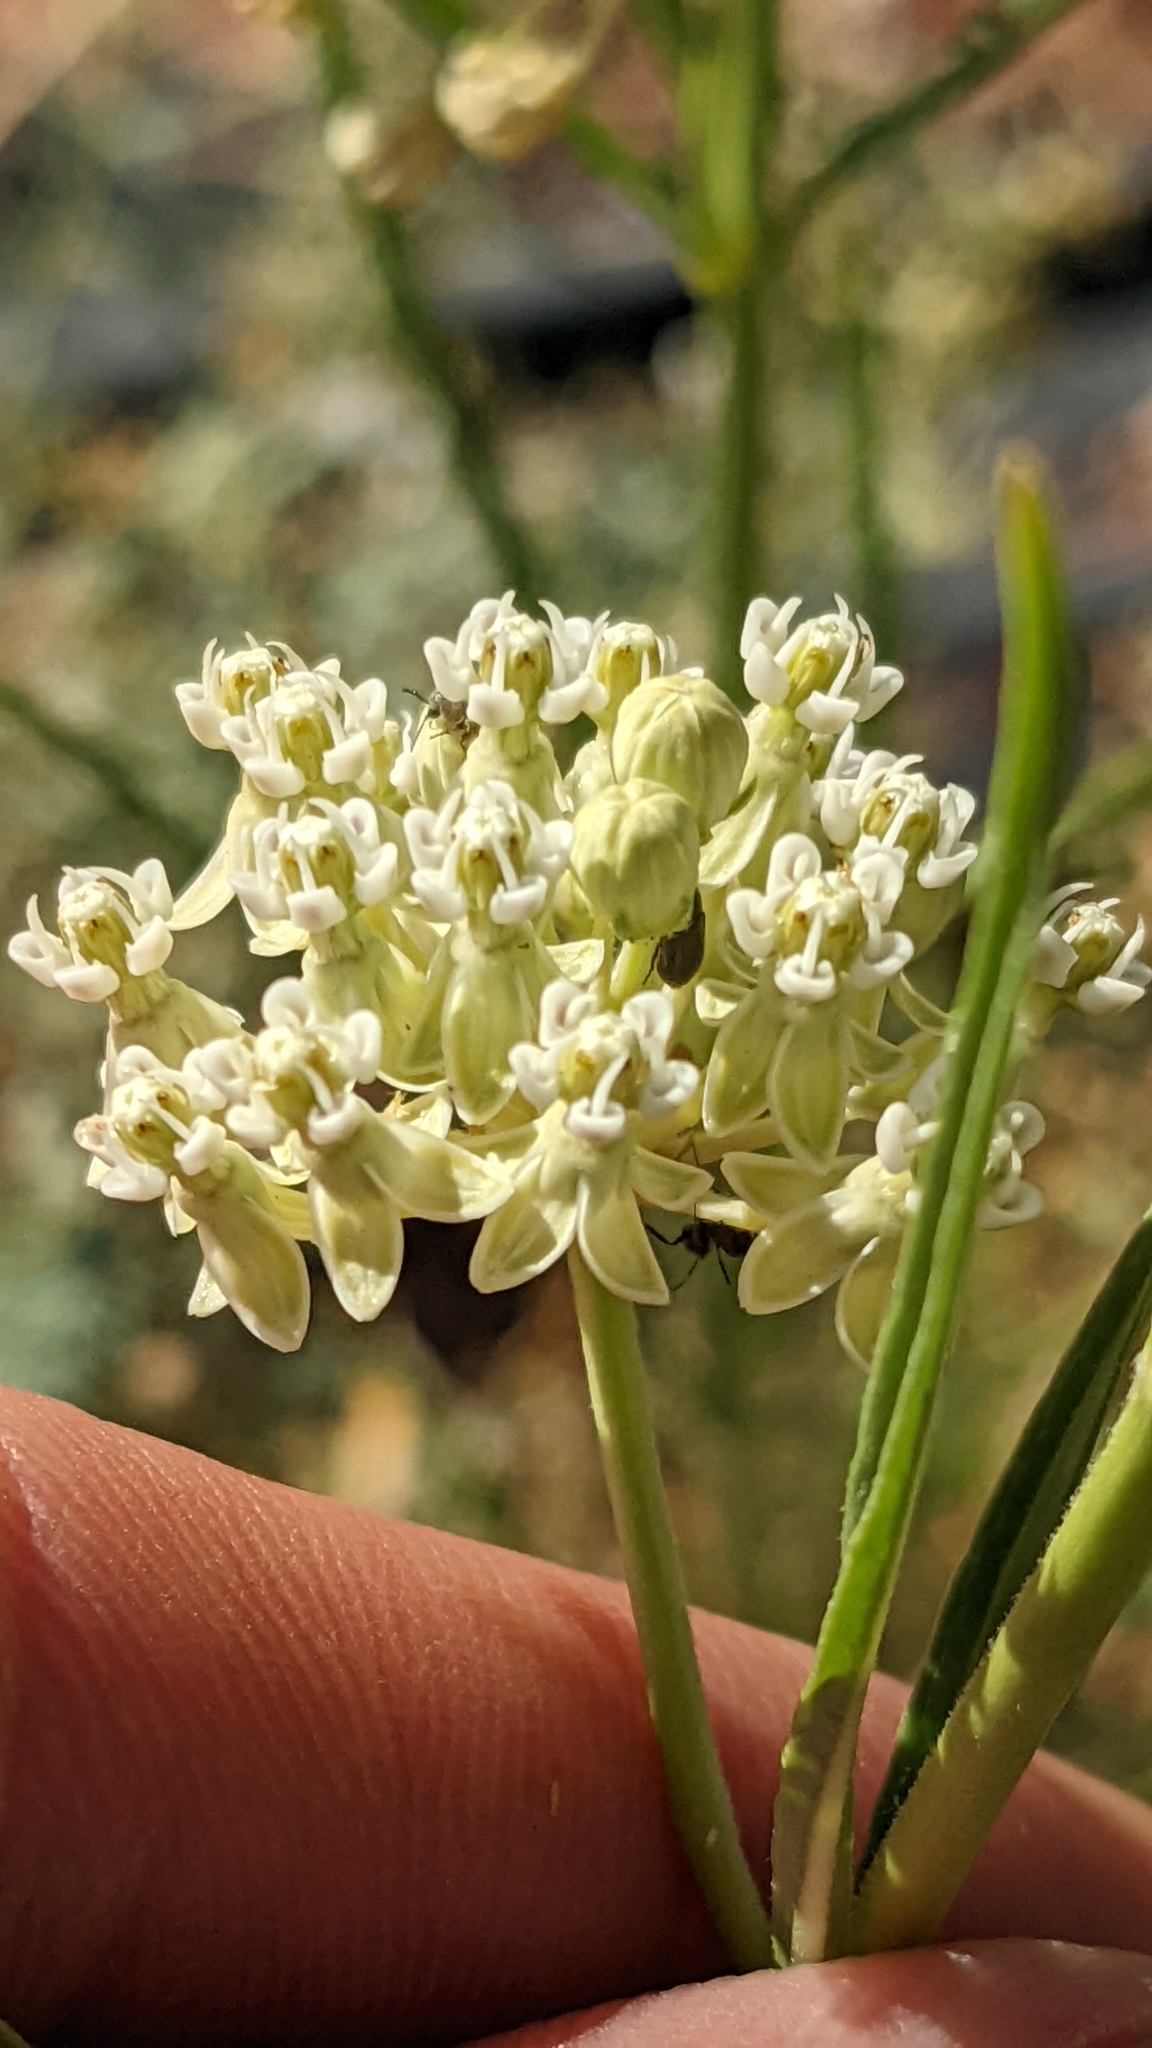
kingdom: Plantae
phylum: Tracheophyta
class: Magnoliopsida
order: Gentianales
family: Apocynaceae
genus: Asclepias
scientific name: Asclepias subverticillata
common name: Horsetail milkweed
